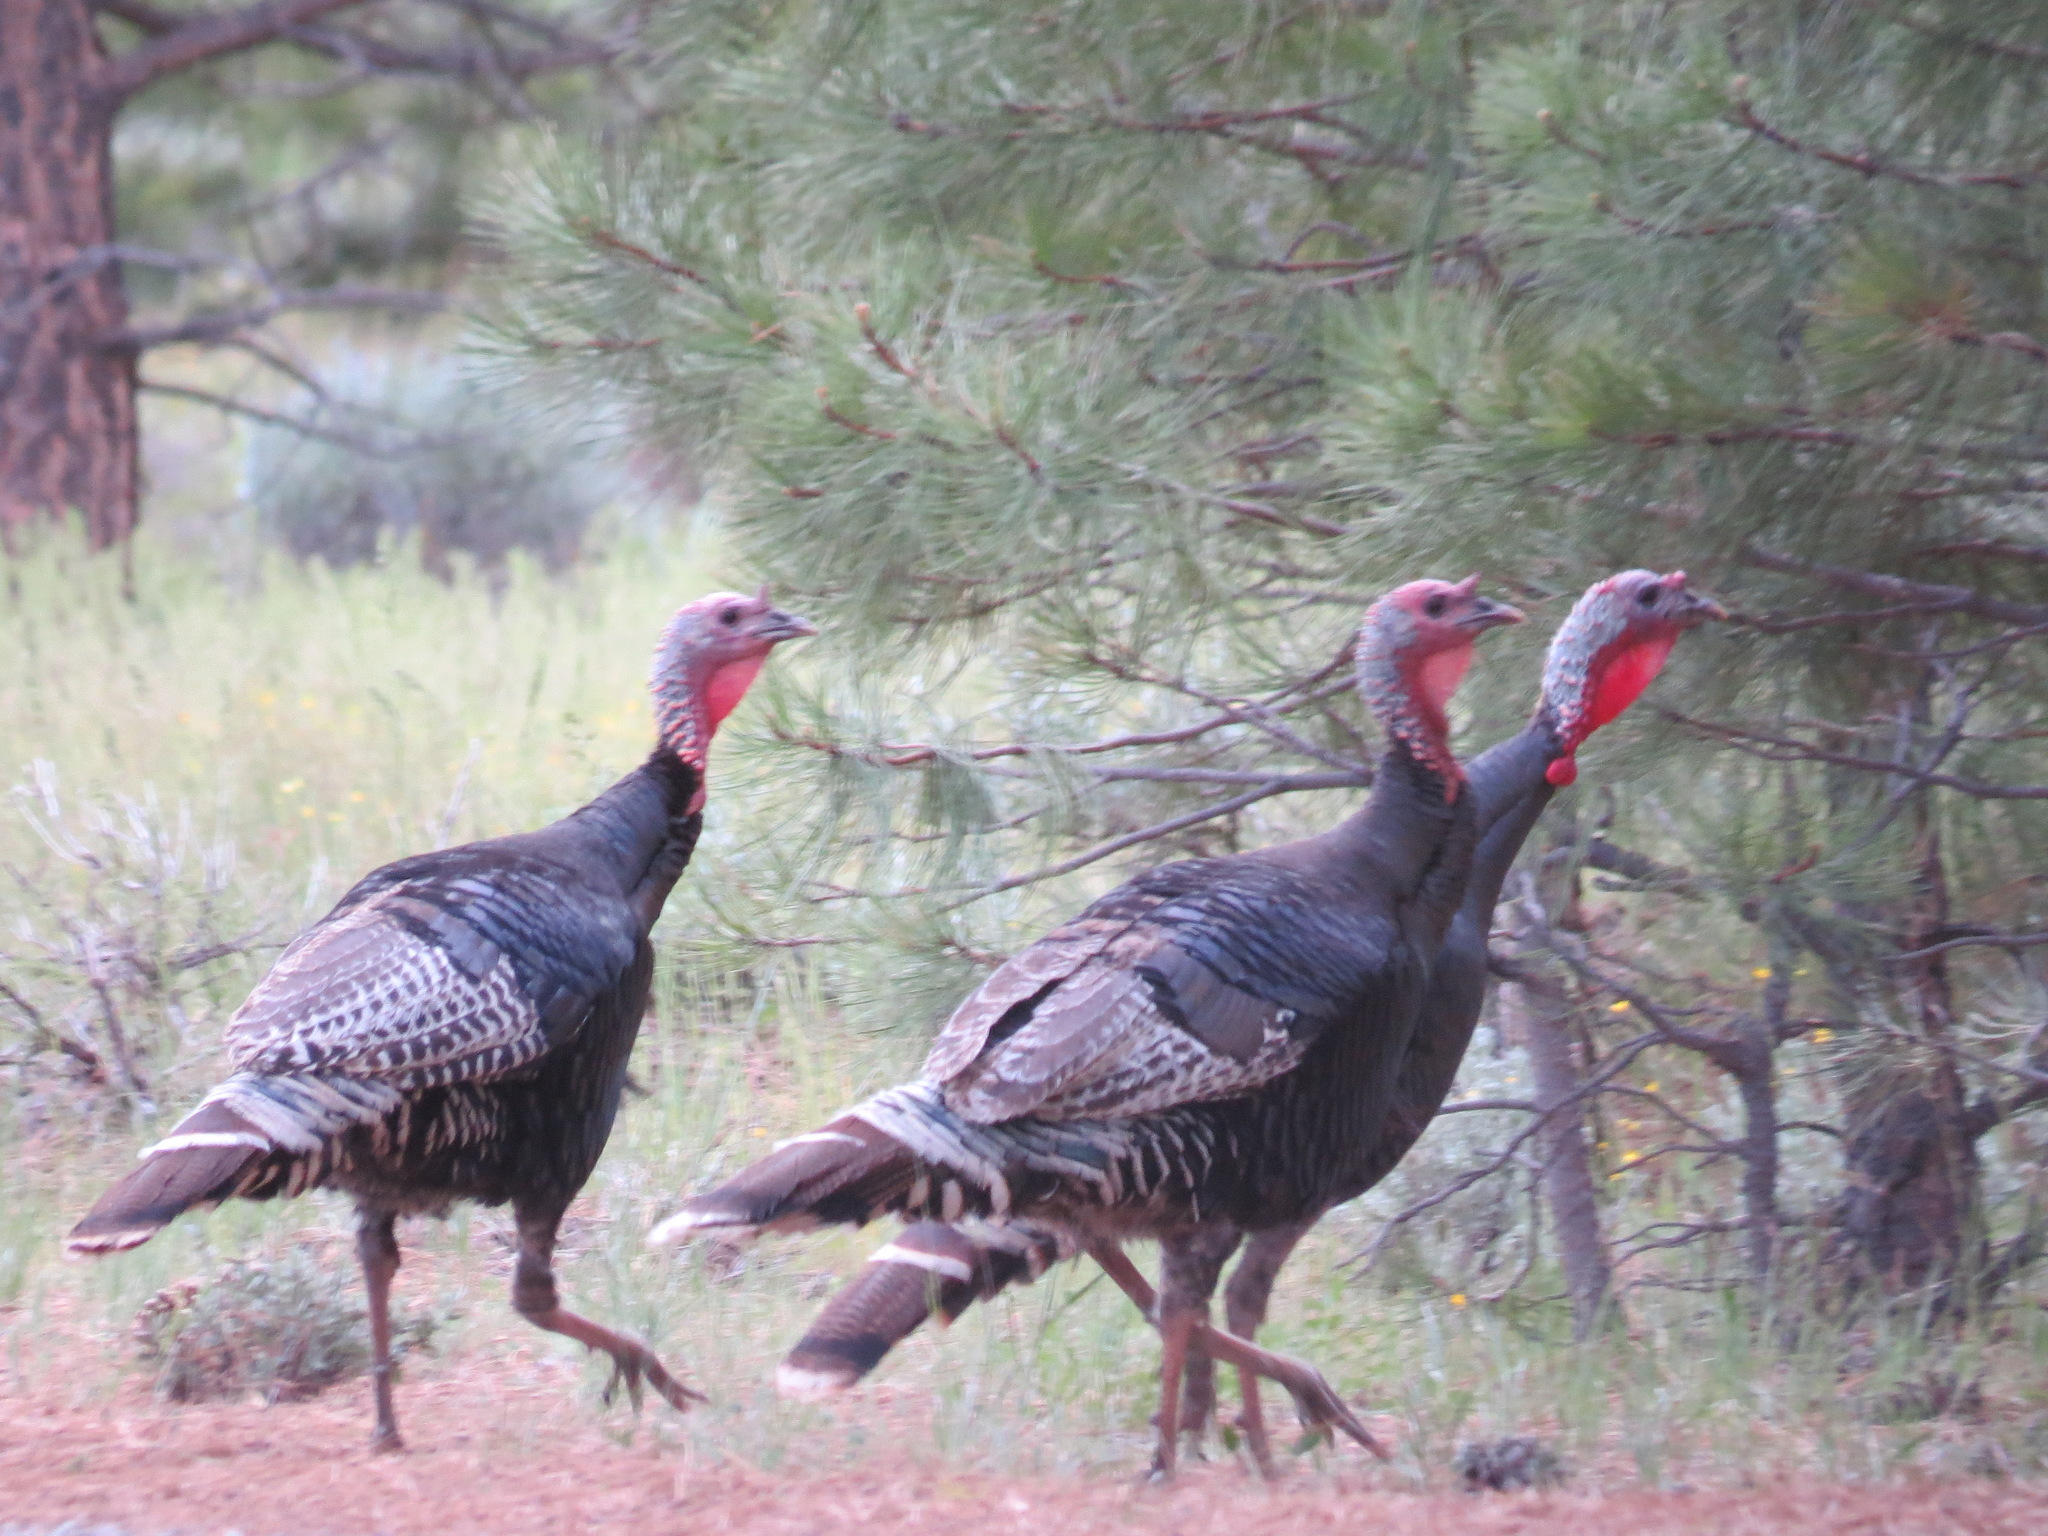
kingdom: Animalia
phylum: Chordata
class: Aves
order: Galliformes
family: Phasianidae
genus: Meleagris
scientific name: Meleagris gallopavo
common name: Wild turkey
